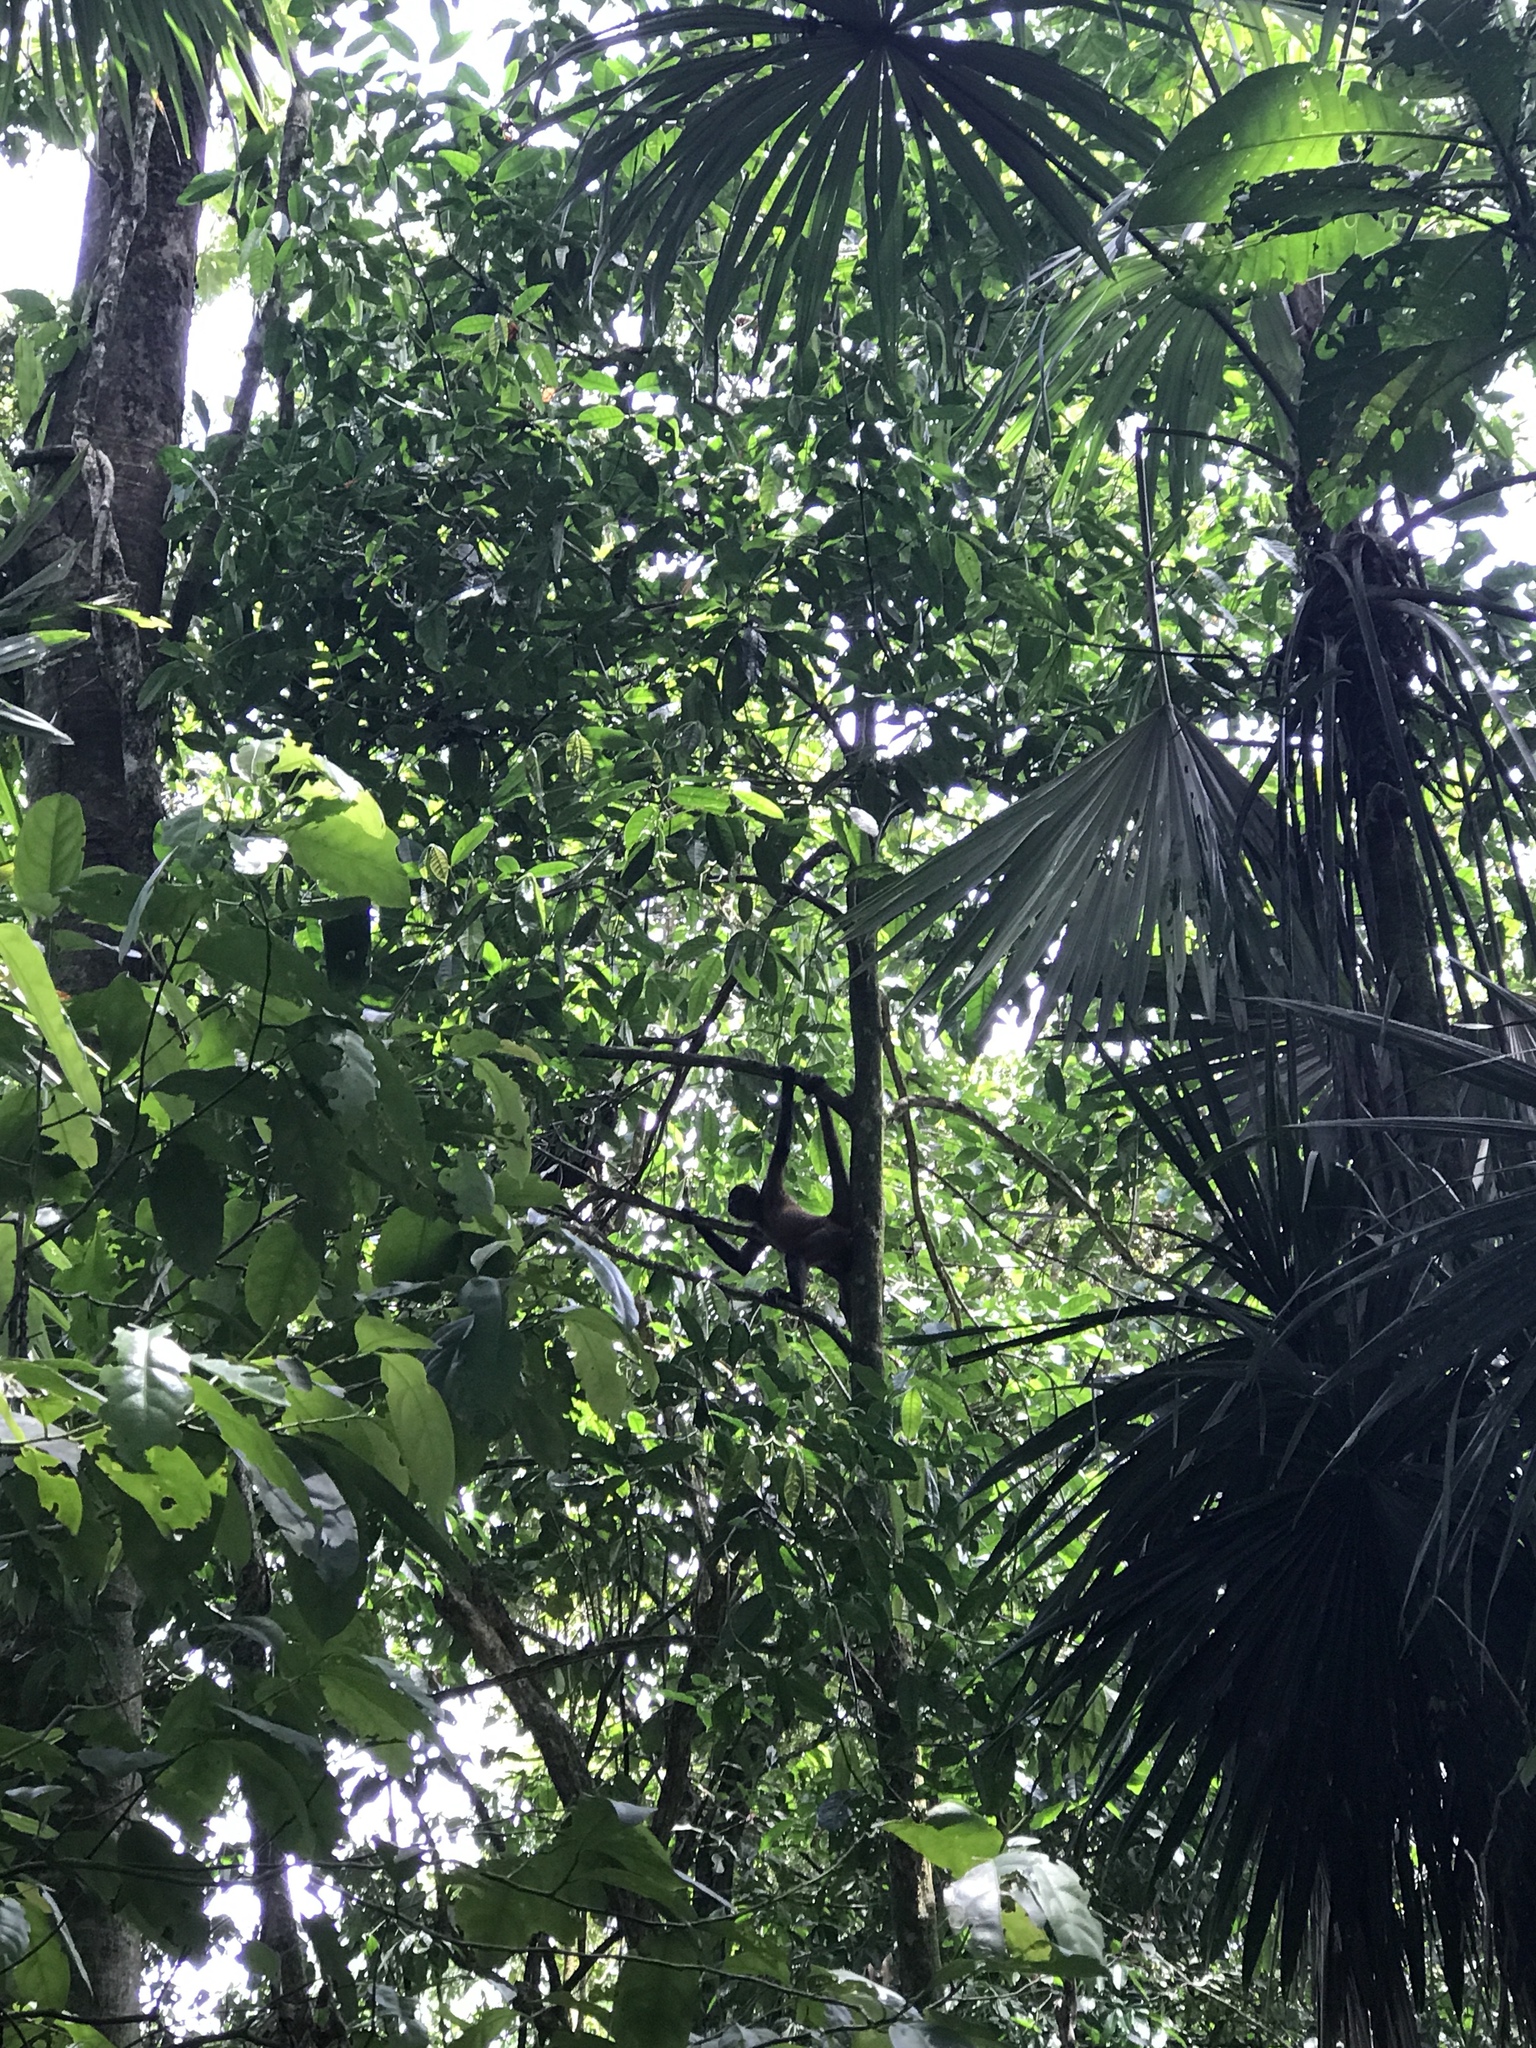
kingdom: Animalia
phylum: Chordata
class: Mammalia
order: Primates
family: Atelidae
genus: Ateles
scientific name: Ateles geoffroyi
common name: Black-handed spider monkey
